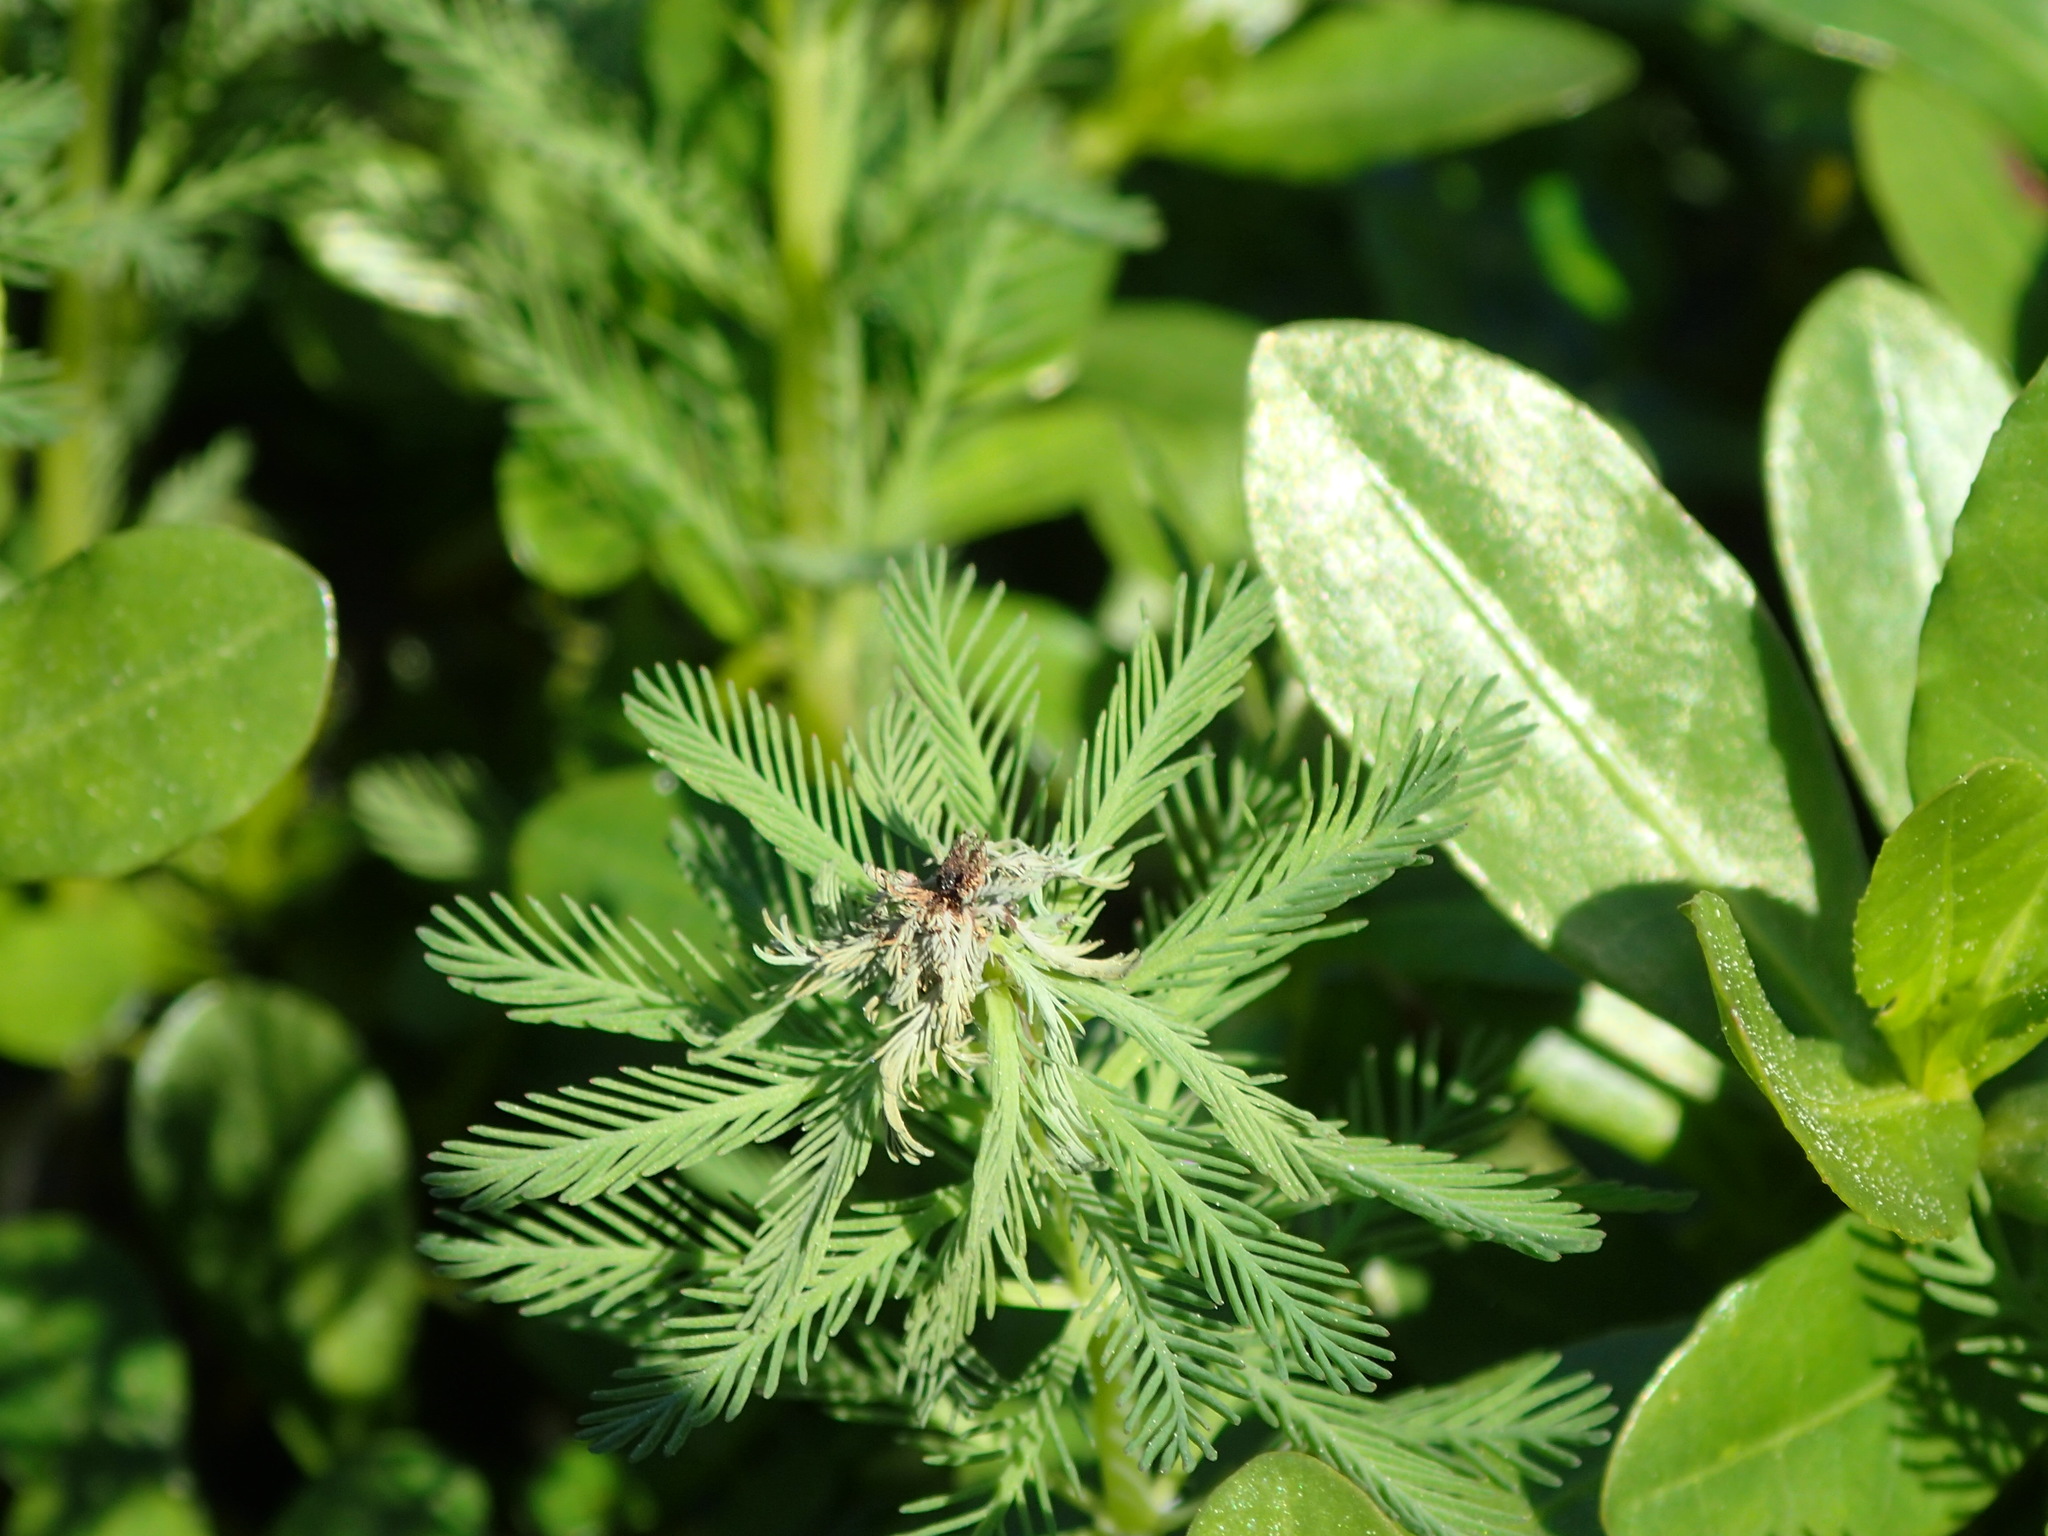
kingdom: Plantae
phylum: Tracheophyta
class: Magnoliopsida
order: Saxifragales
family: Haloragaceae
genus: Myriophyllum
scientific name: Myriophyllum aquaticum
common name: Parrot's feather
